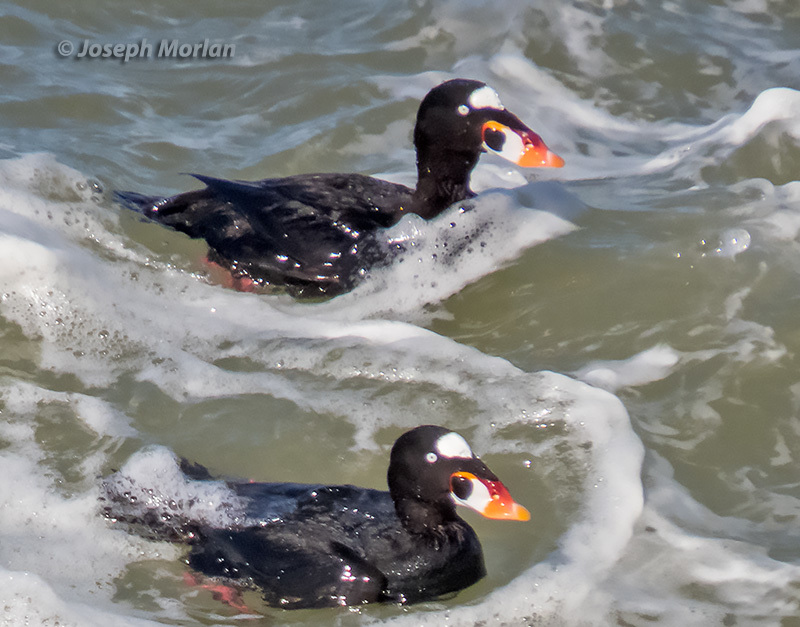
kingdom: Animalia
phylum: Chordata
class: Aves
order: Anseriformes
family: Anatidae
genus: Melanitta
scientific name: Melanitta perspicillata
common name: Surf scoter
